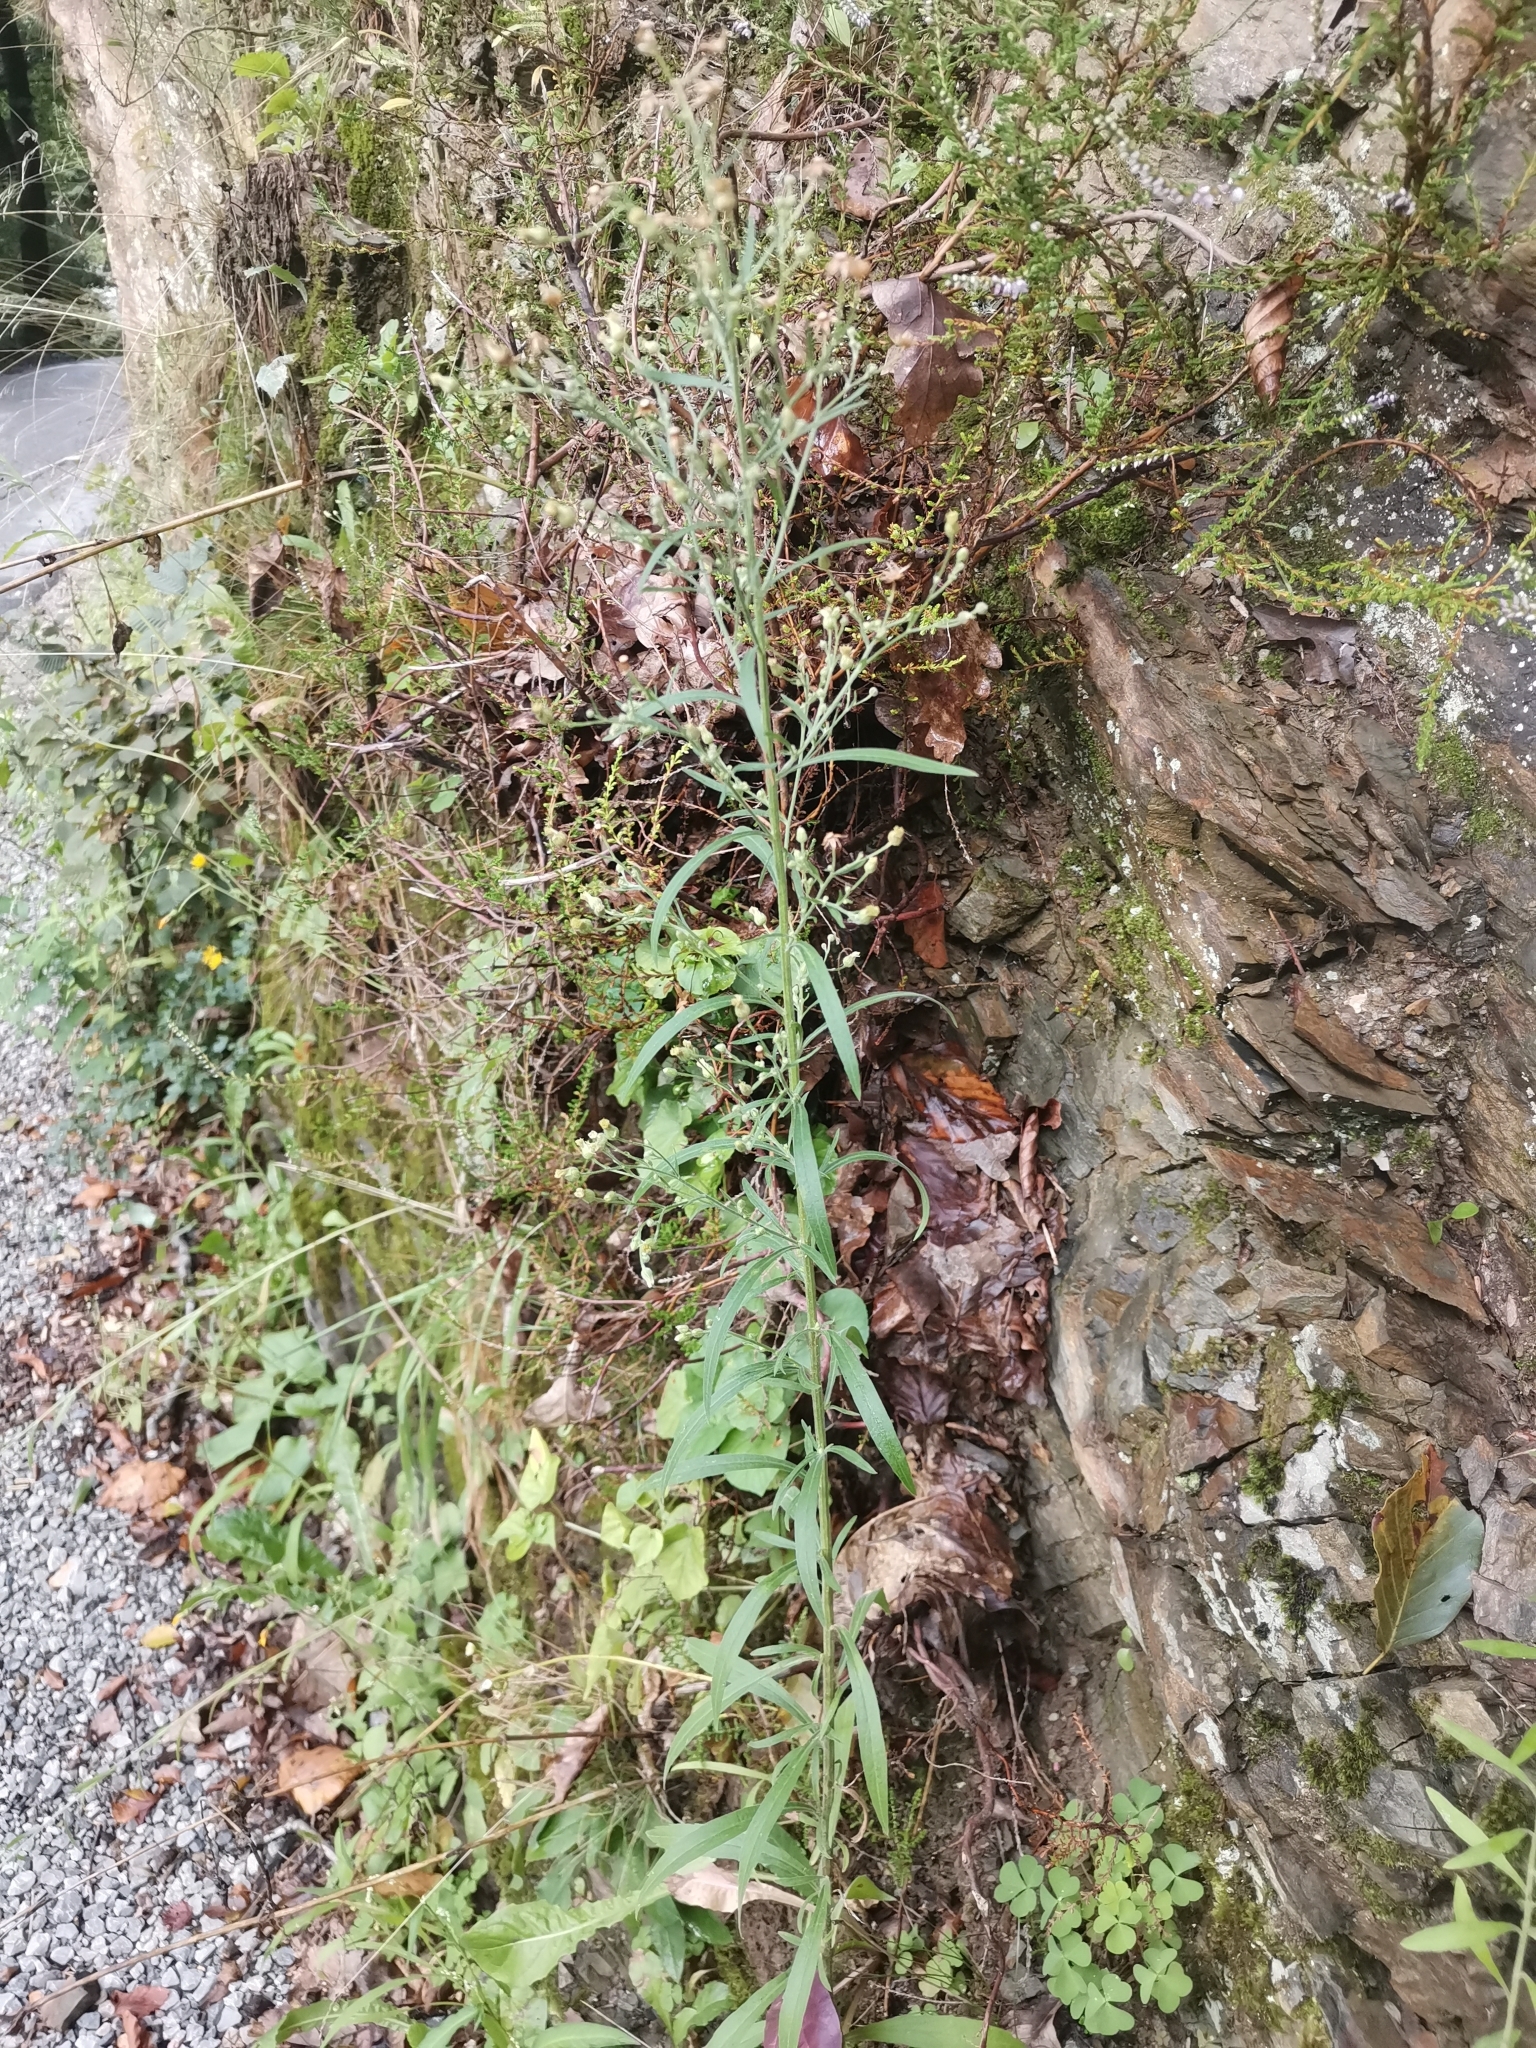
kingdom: Plantae
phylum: Tracheophyta
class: Magnoliopsida
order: Asterales
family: Asteraceae
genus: Erigeron
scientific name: Erigeron sumatrensis
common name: Daisy
